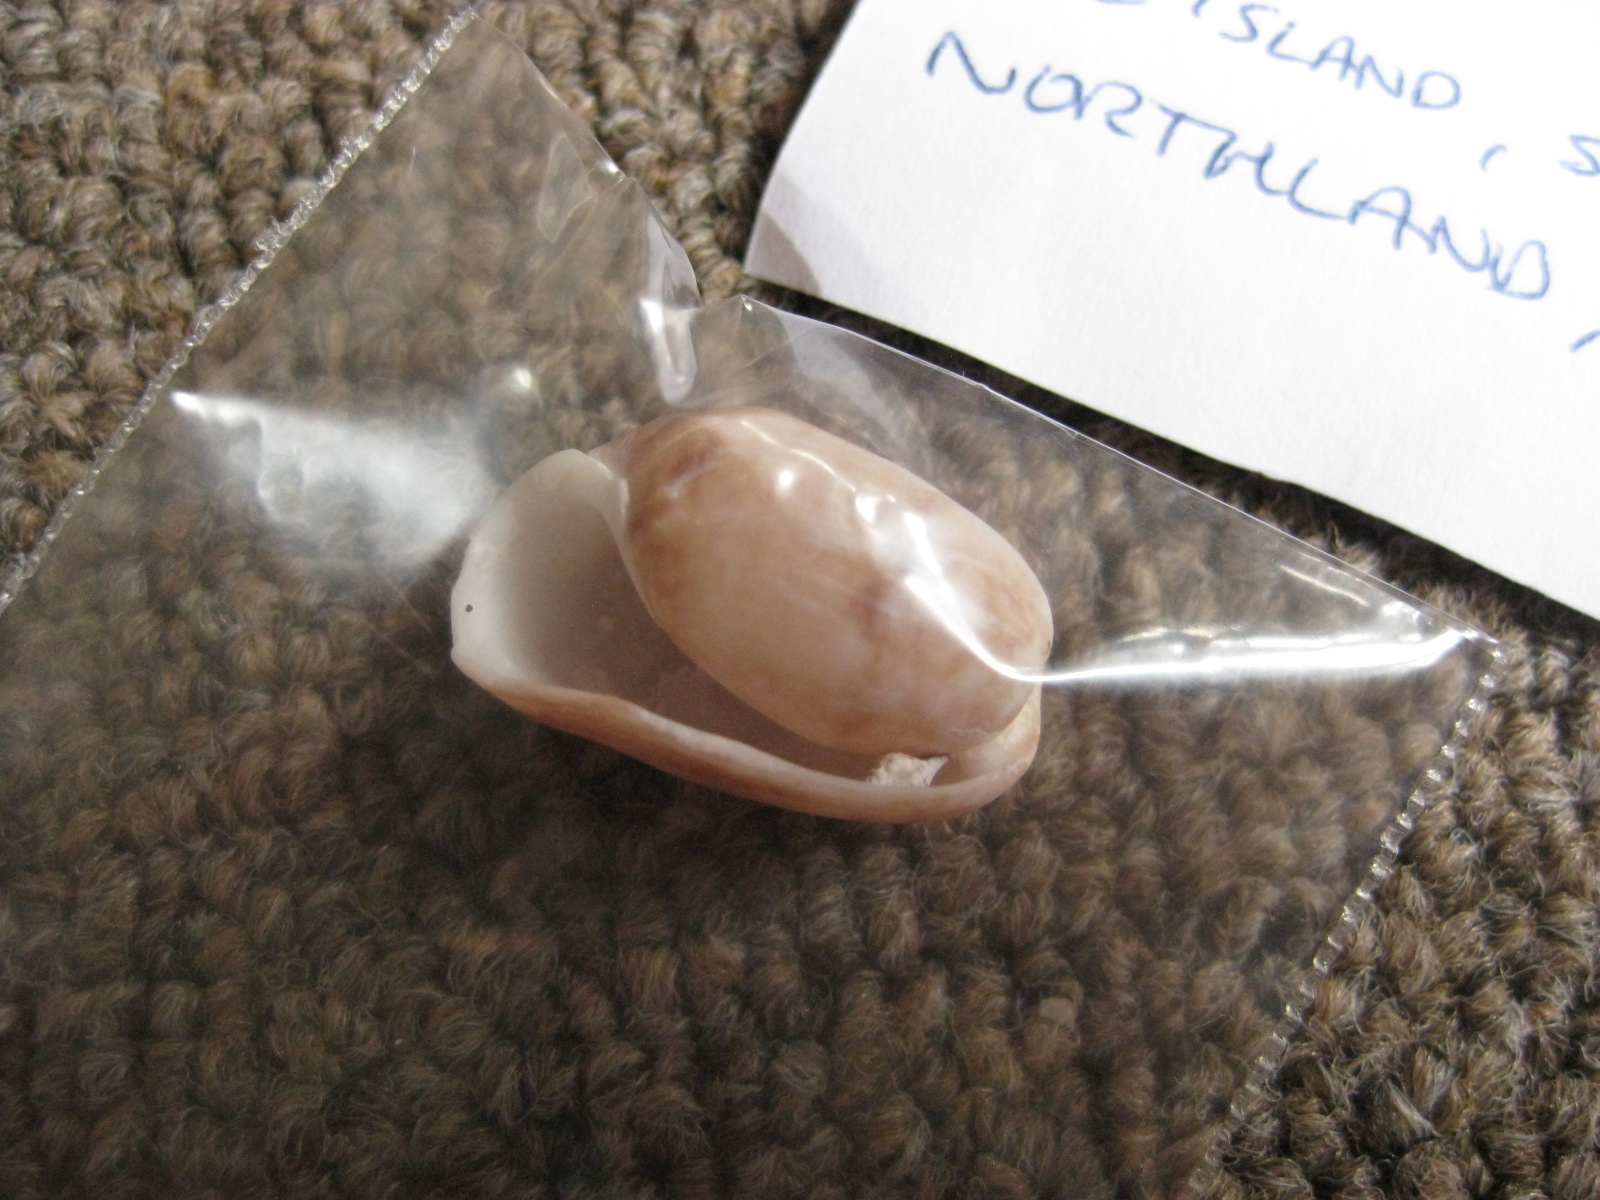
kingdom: Animalia
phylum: Mollusca
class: Gastropoda
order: Cephalaspidea
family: Bullidae
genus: Bulla
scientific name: Bulla vernicosa
